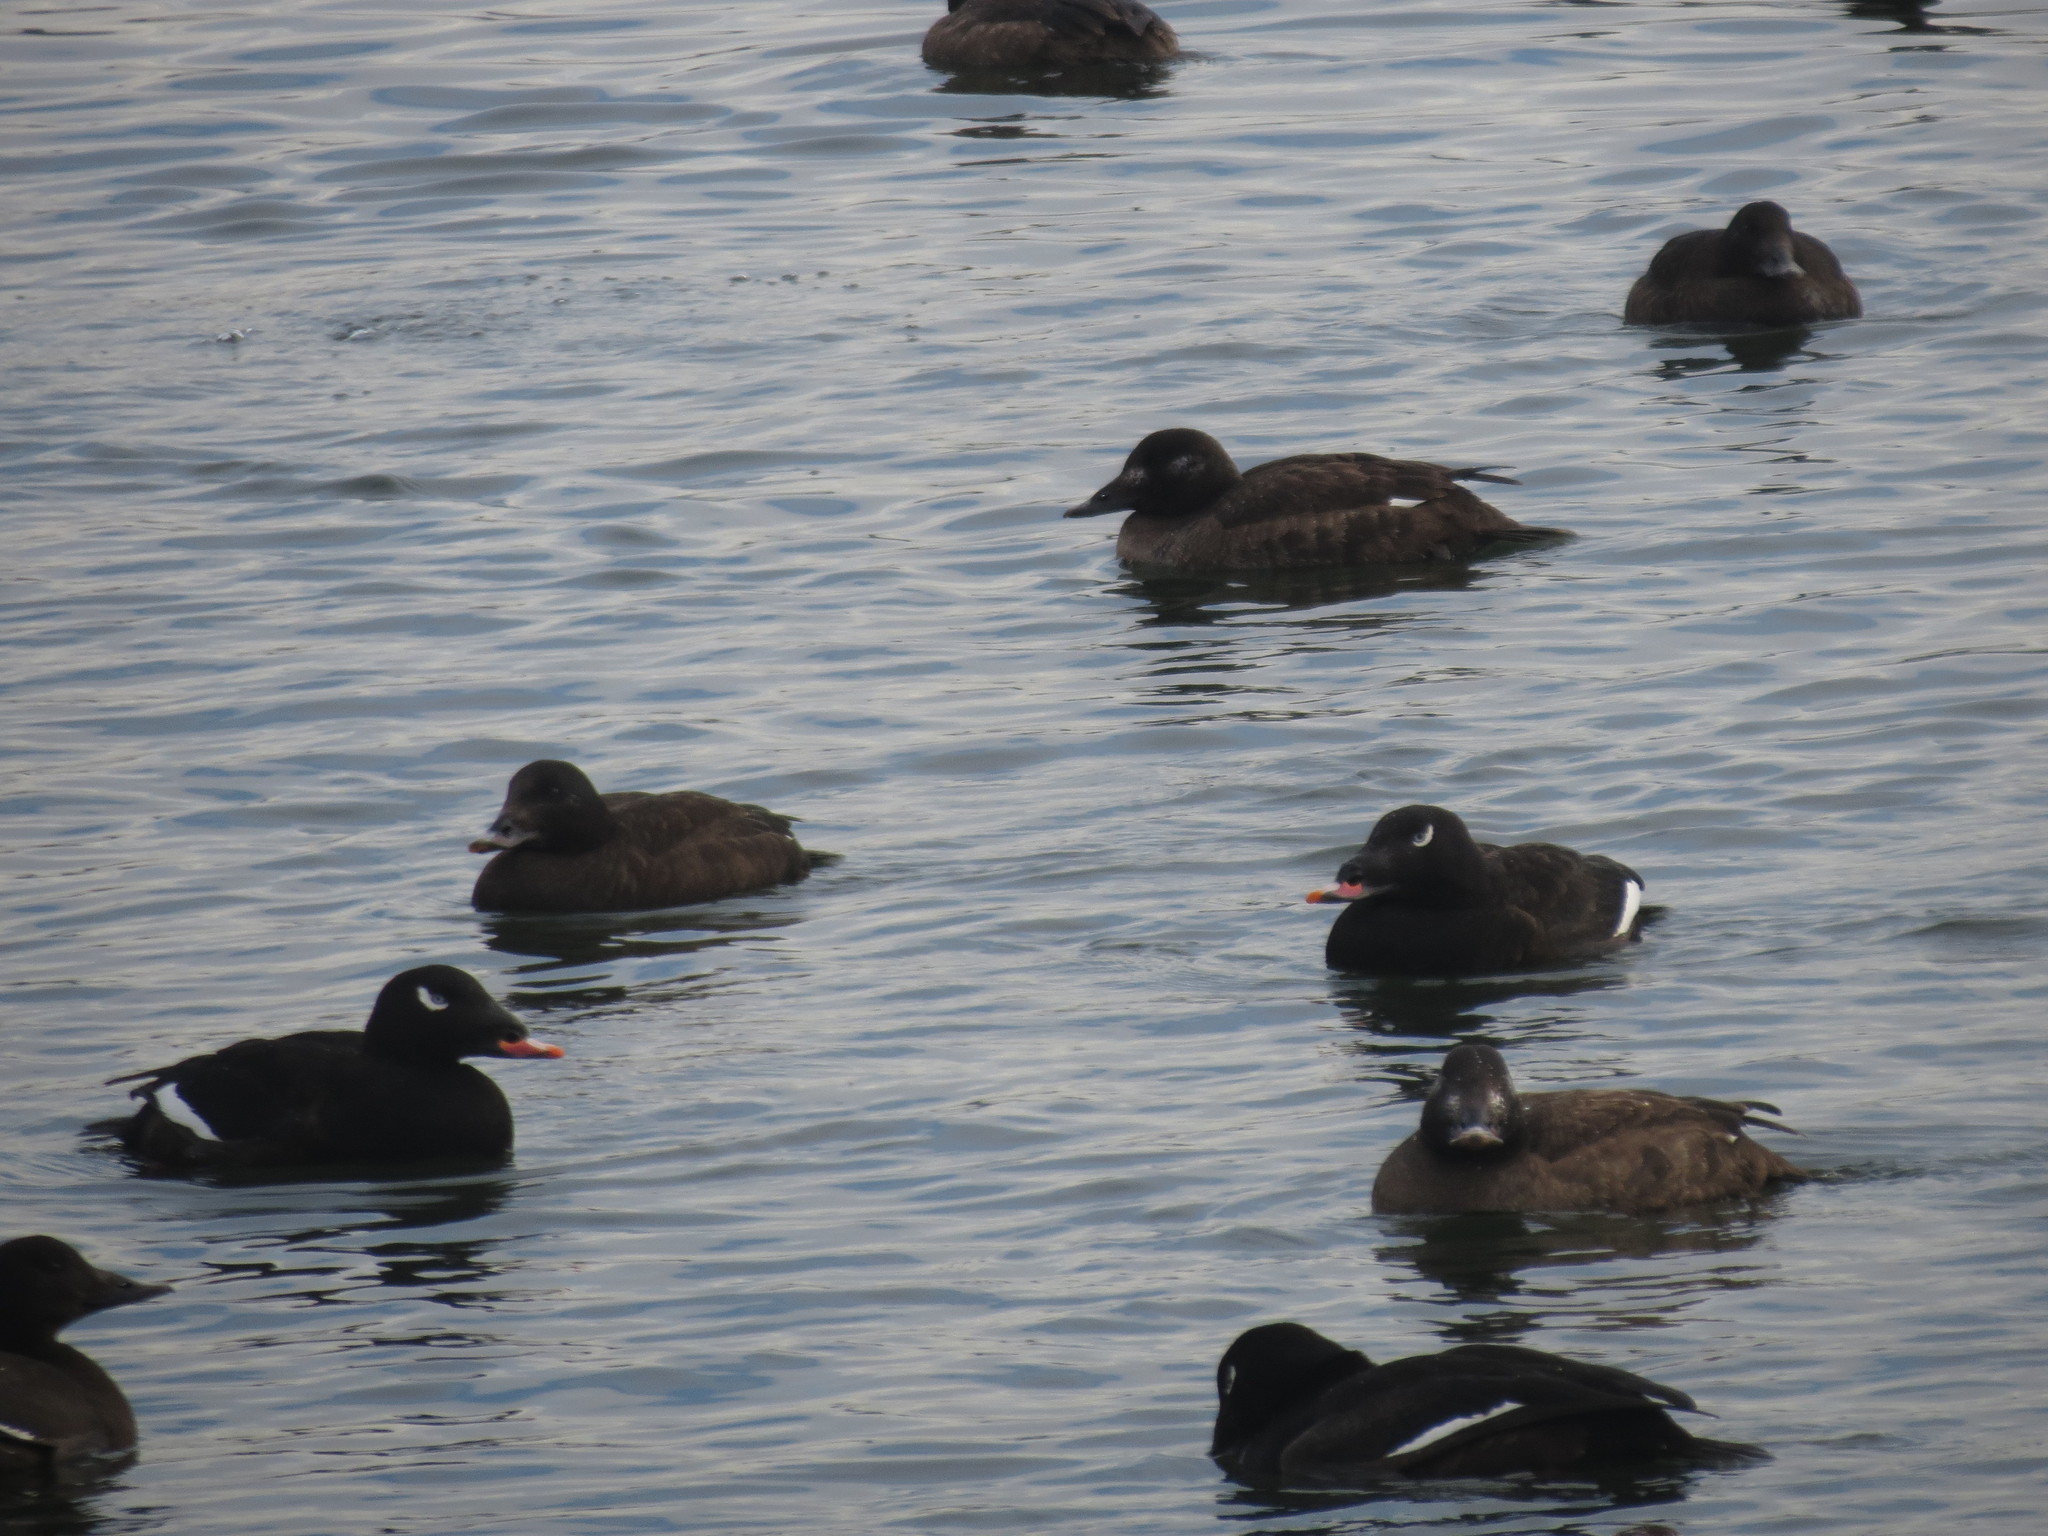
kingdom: Animalia
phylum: Chordata
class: Aves
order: Anseriformes
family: Anatidae
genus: Melanitta
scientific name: Melanitta deglandi
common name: White-winged scoter
